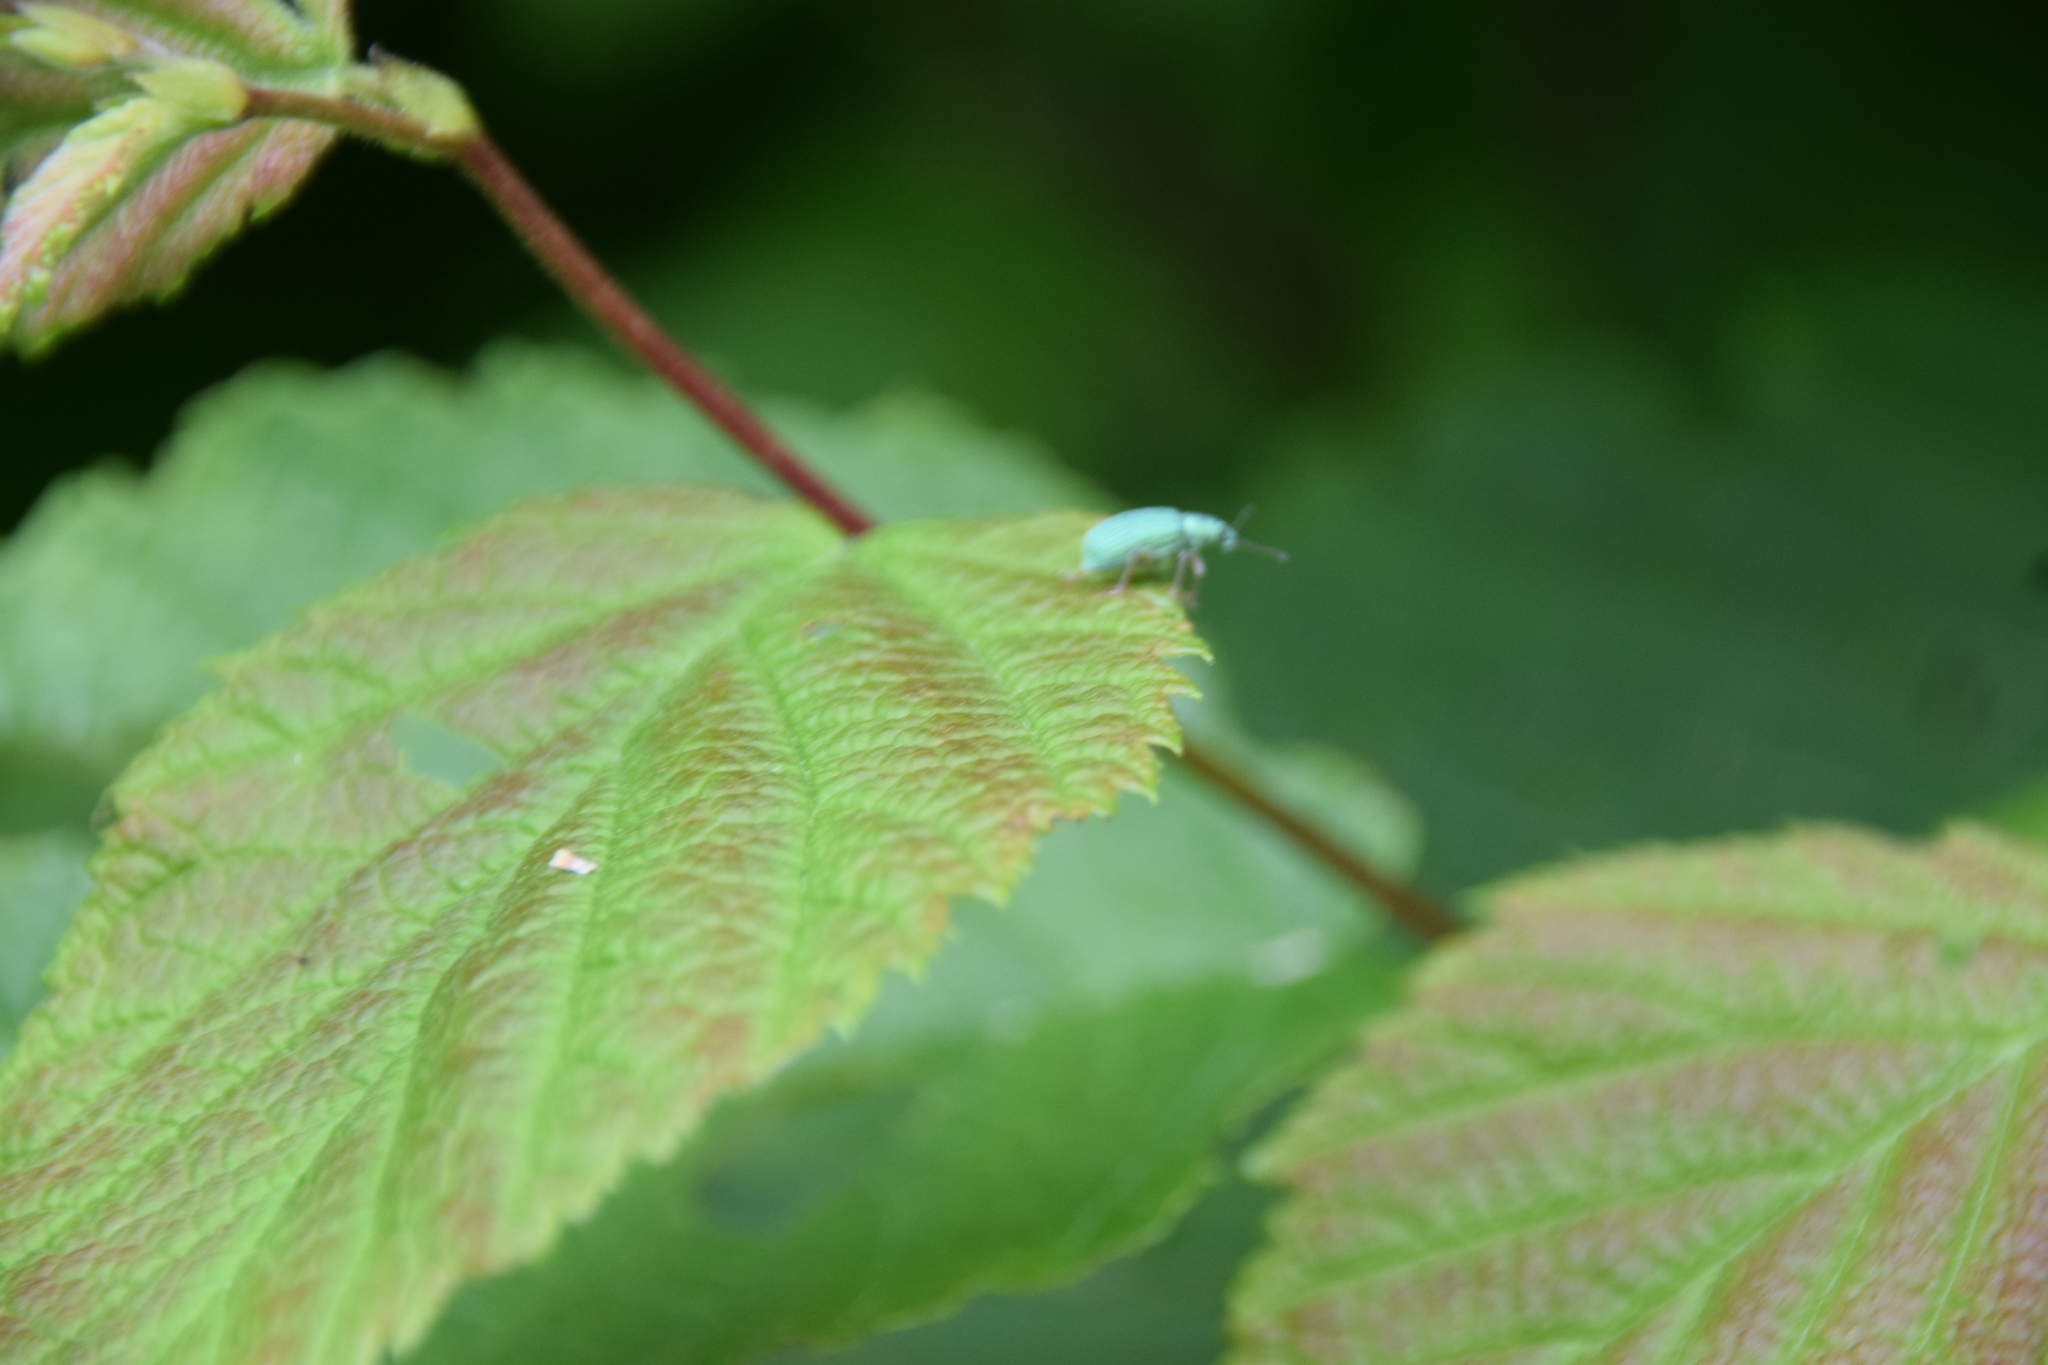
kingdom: Animalia
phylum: Arthropoda
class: Insecta
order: Coleoptera
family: Curculionidae
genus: Polydrusus
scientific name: Polydrusus formosus
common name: Weevil
